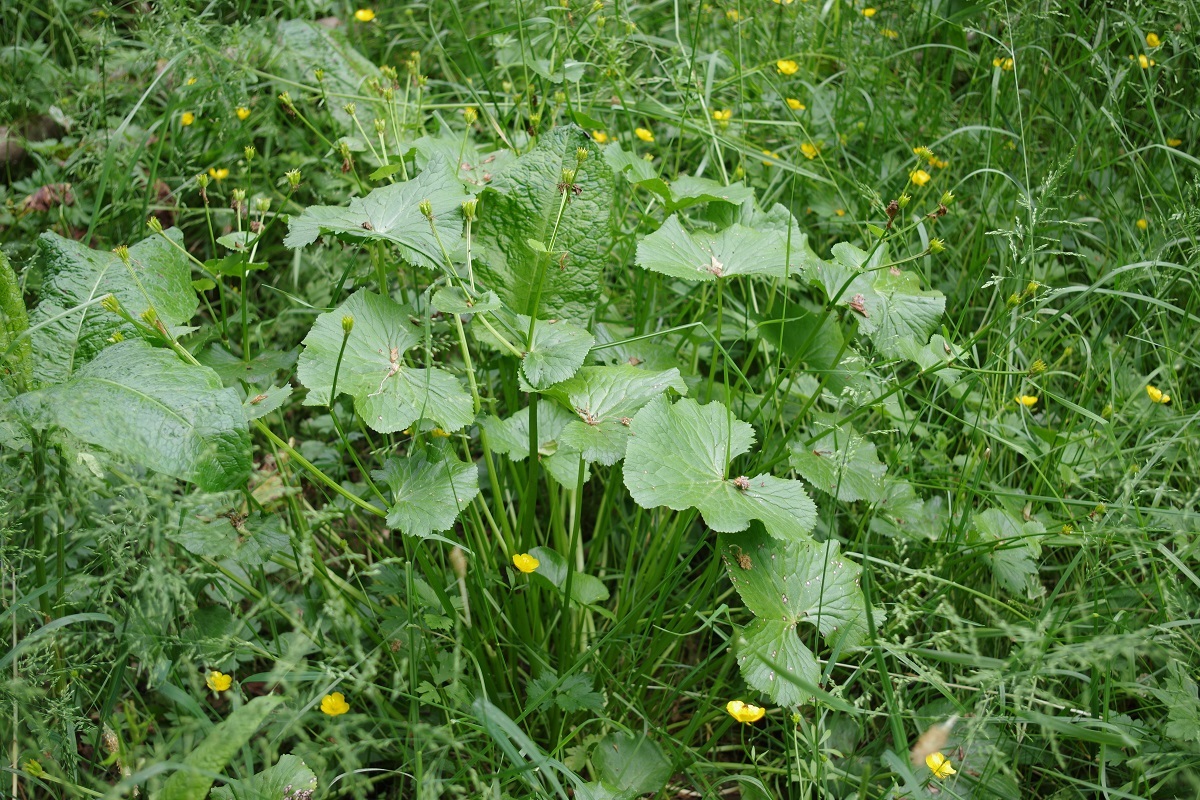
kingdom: Plantae
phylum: Tracheophyta
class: Magnoliopsida
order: Ranunculales
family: Ranunculaceae
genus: Caltha
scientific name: Caltha palustris
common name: Marsh marigold
